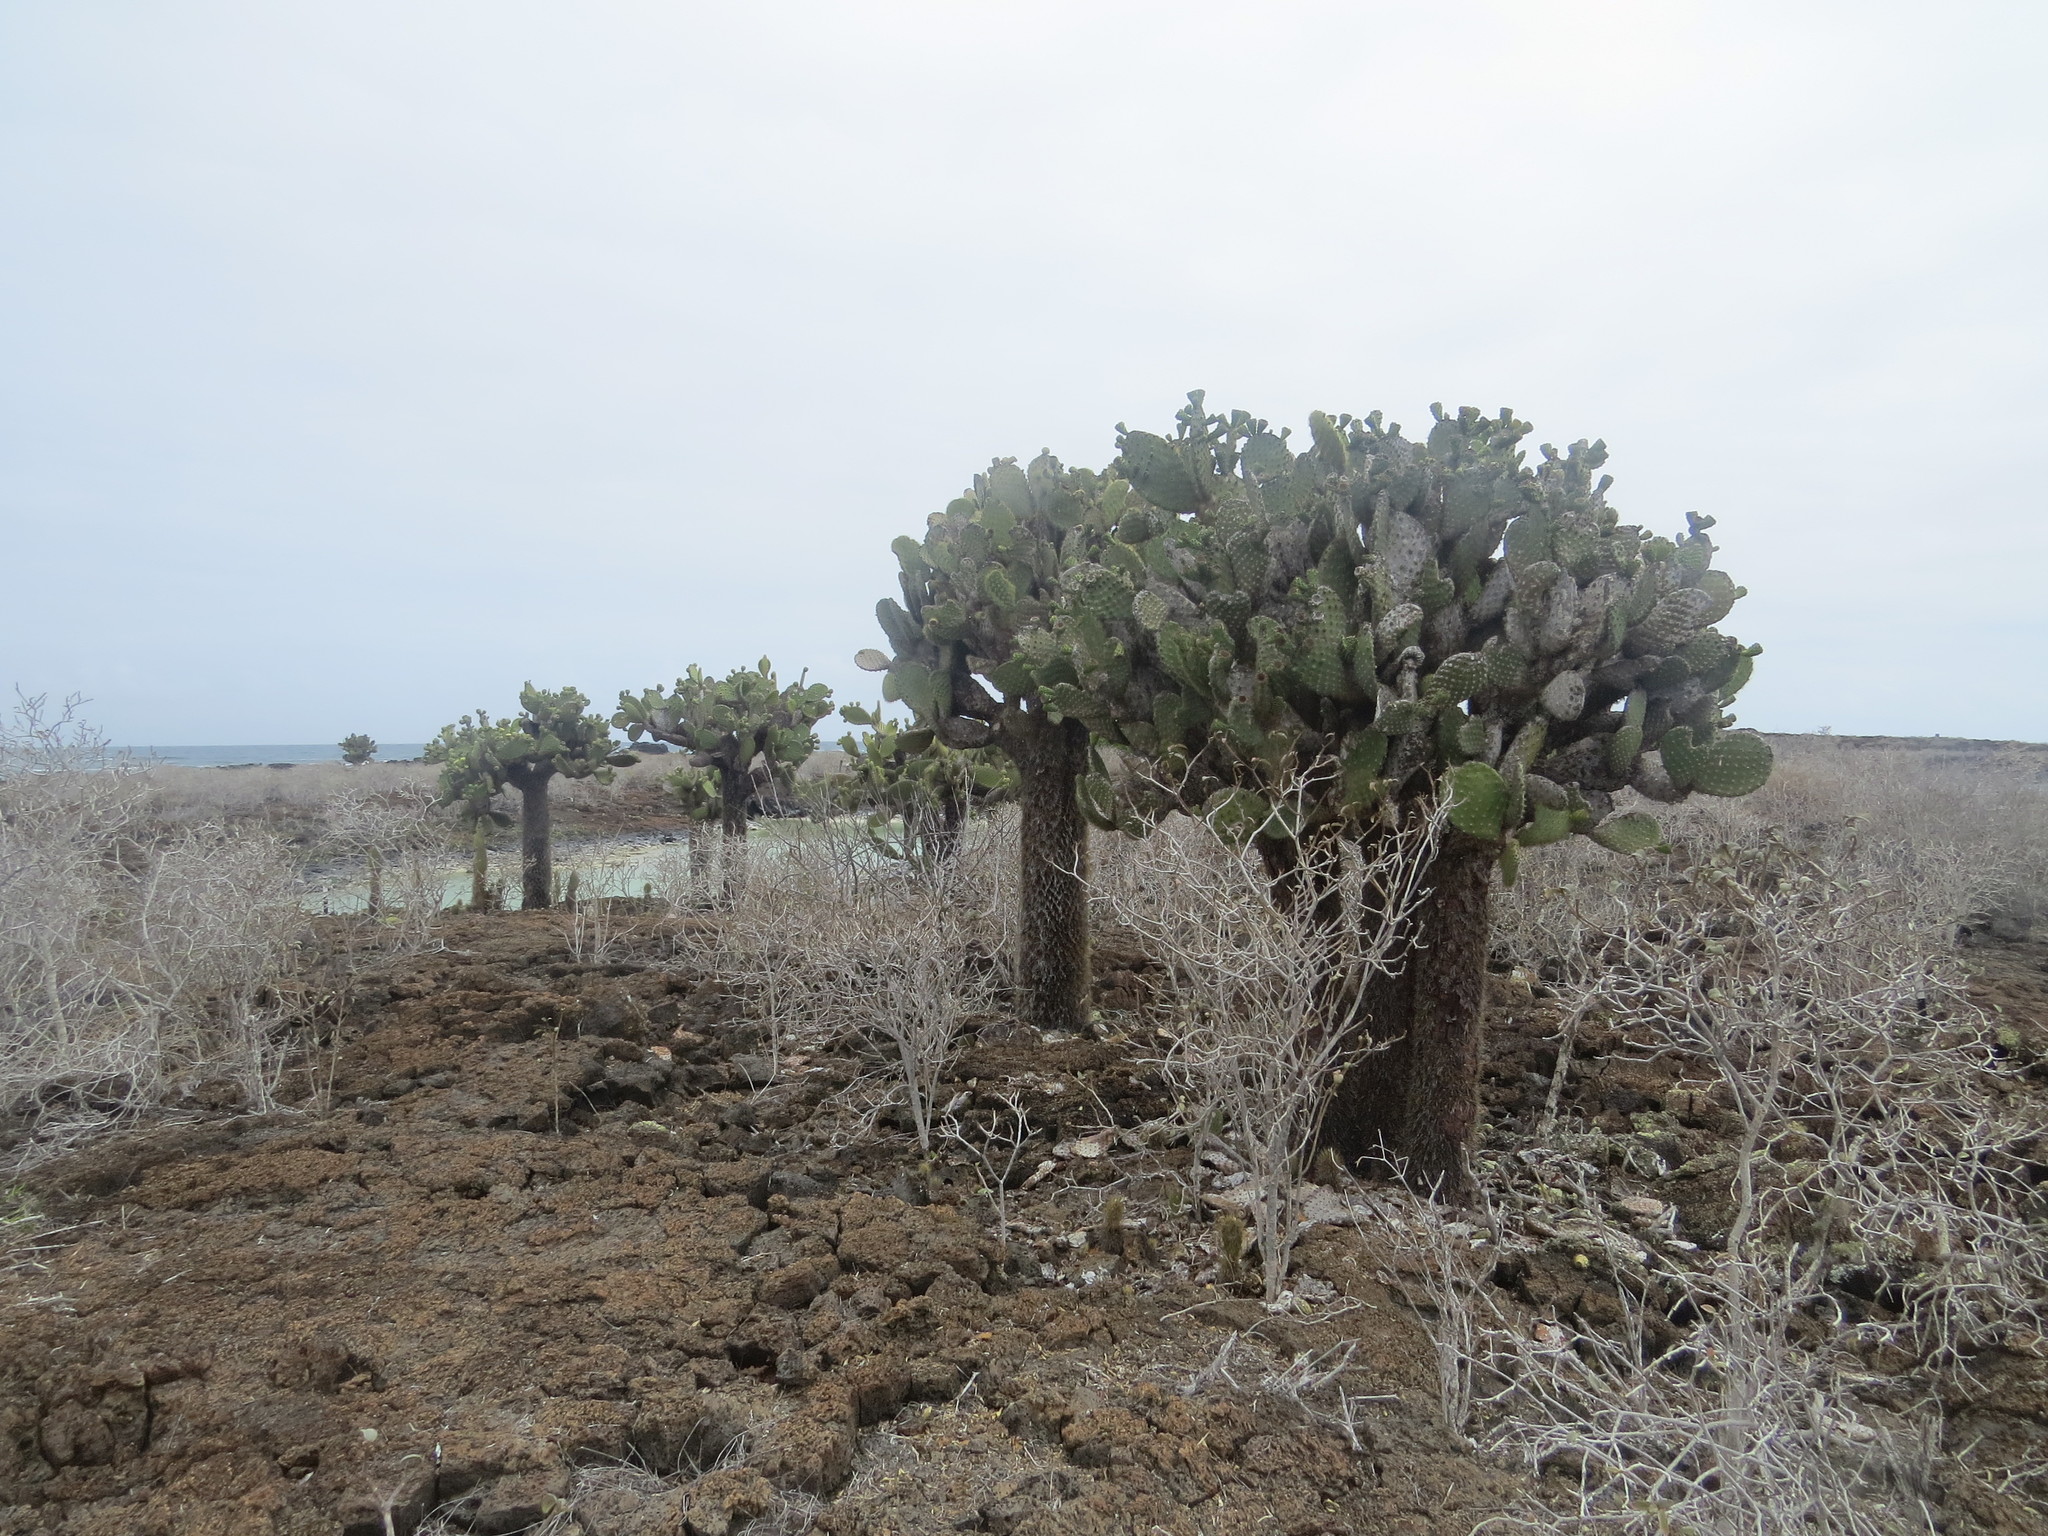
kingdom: Plantae
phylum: Tracheophyta
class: Magnoliopsida
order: Caryophyllales
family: Cactaceae
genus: Opuntia
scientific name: Opuntia galapageia
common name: Galápagos prickly pear
